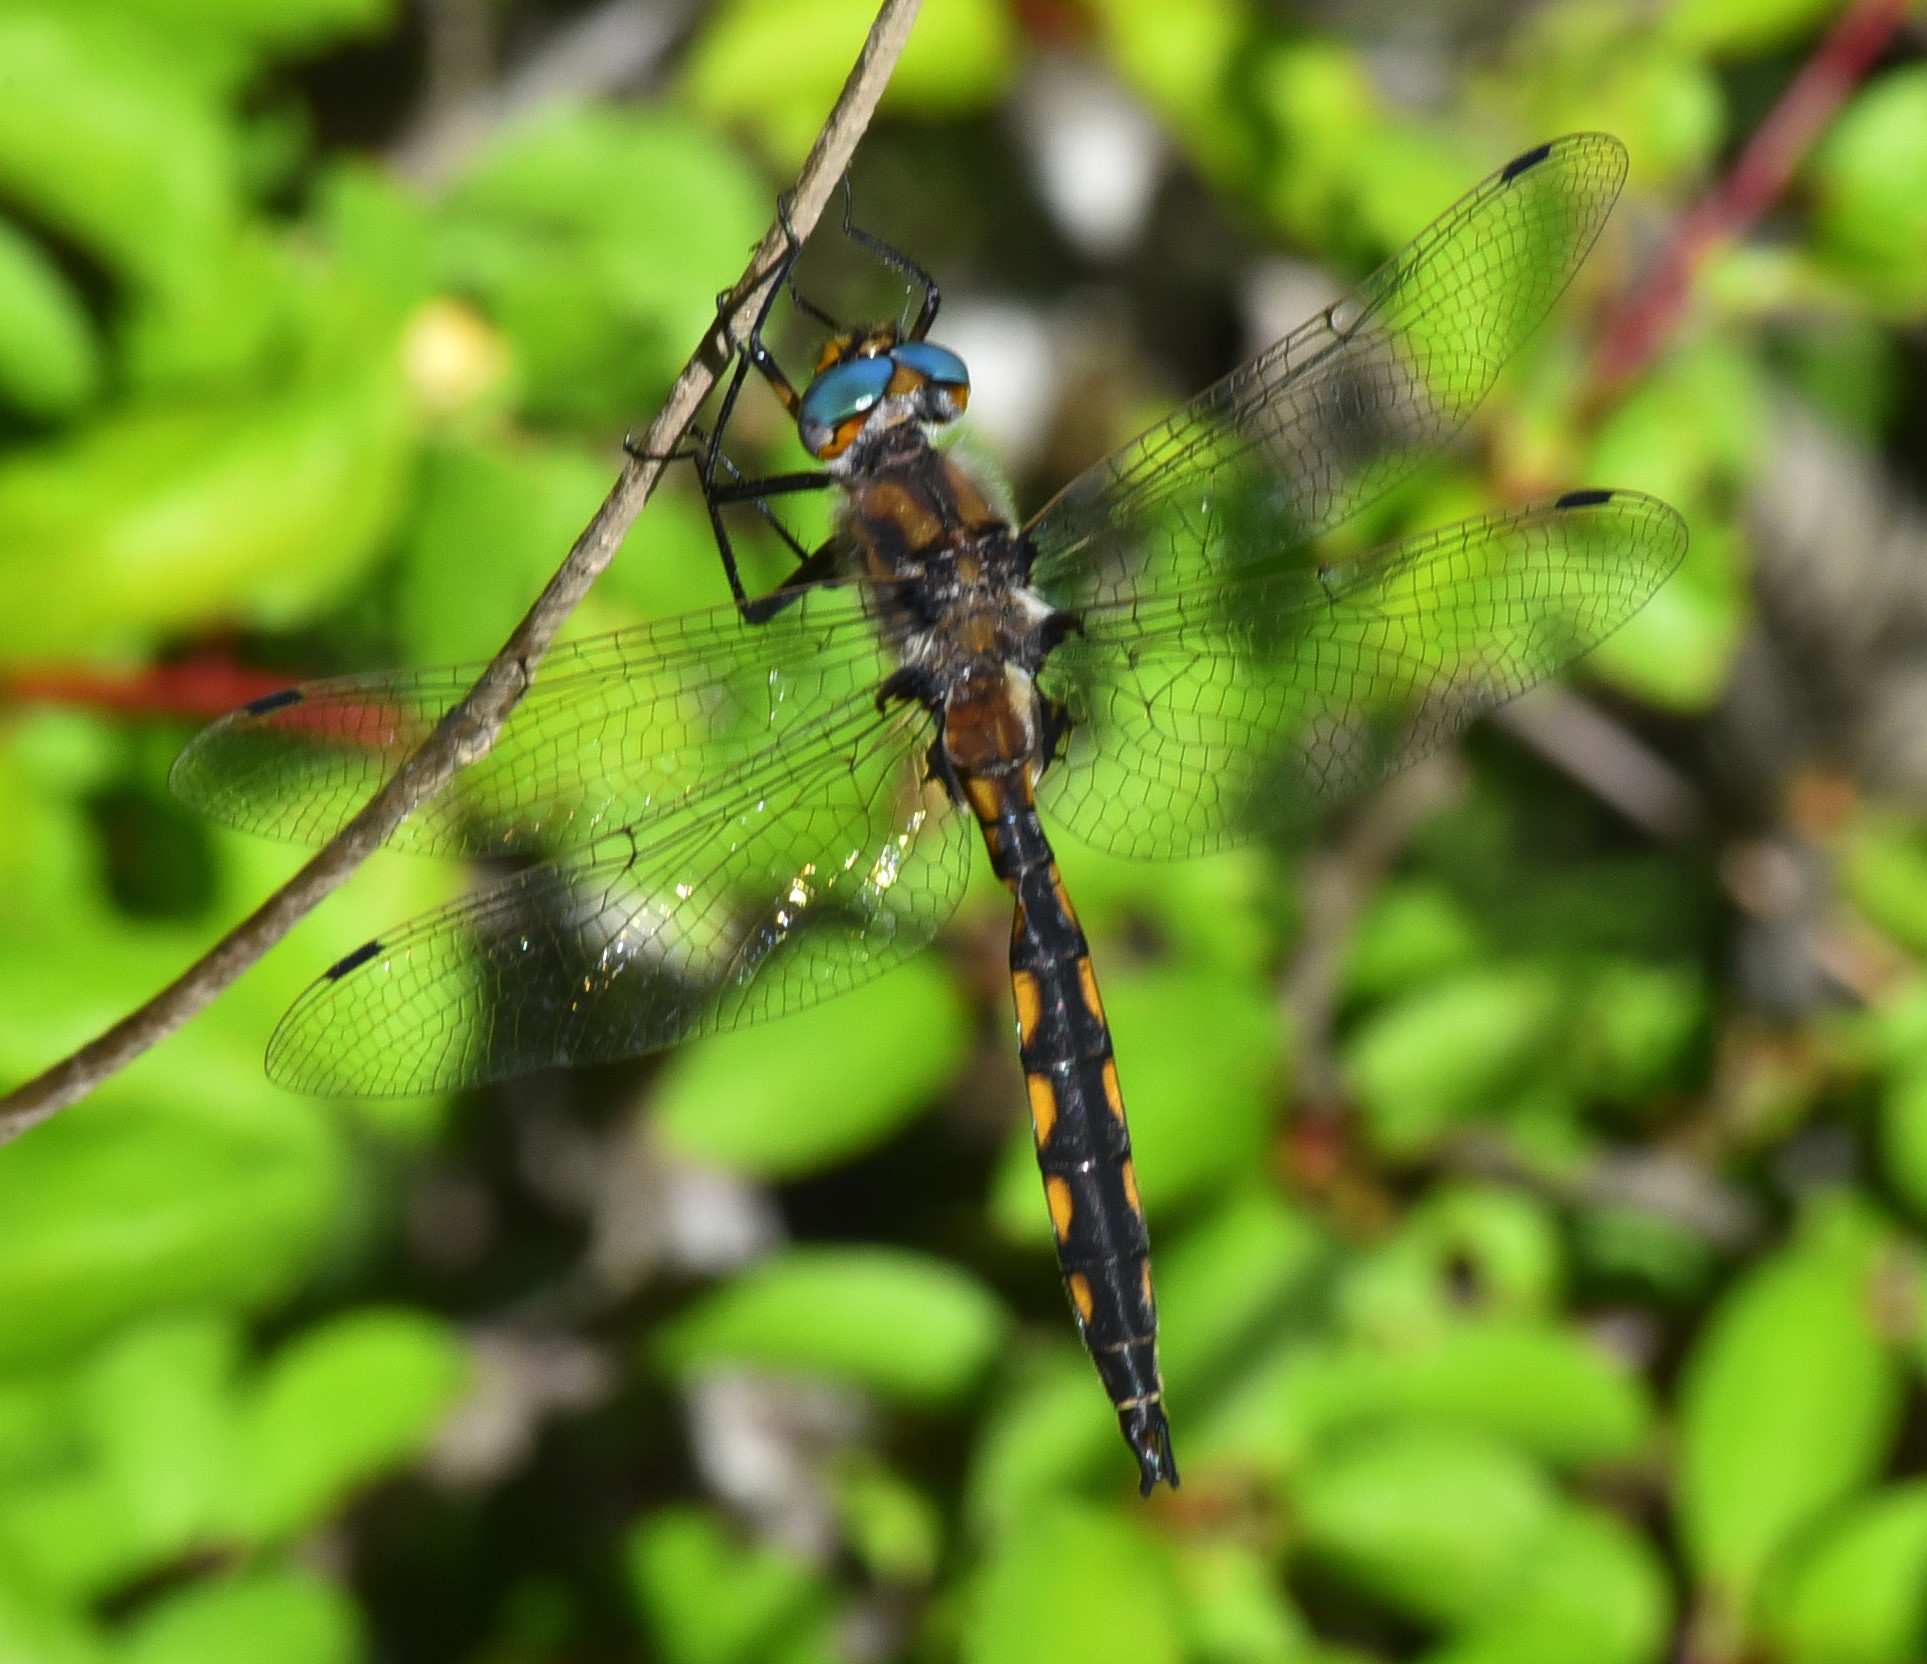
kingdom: Animalia
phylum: Arthropoda
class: Insecta
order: Odonata
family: Corduliidae
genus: Epitheca
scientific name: Epitheca canis
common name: Beaverpond baskettail
